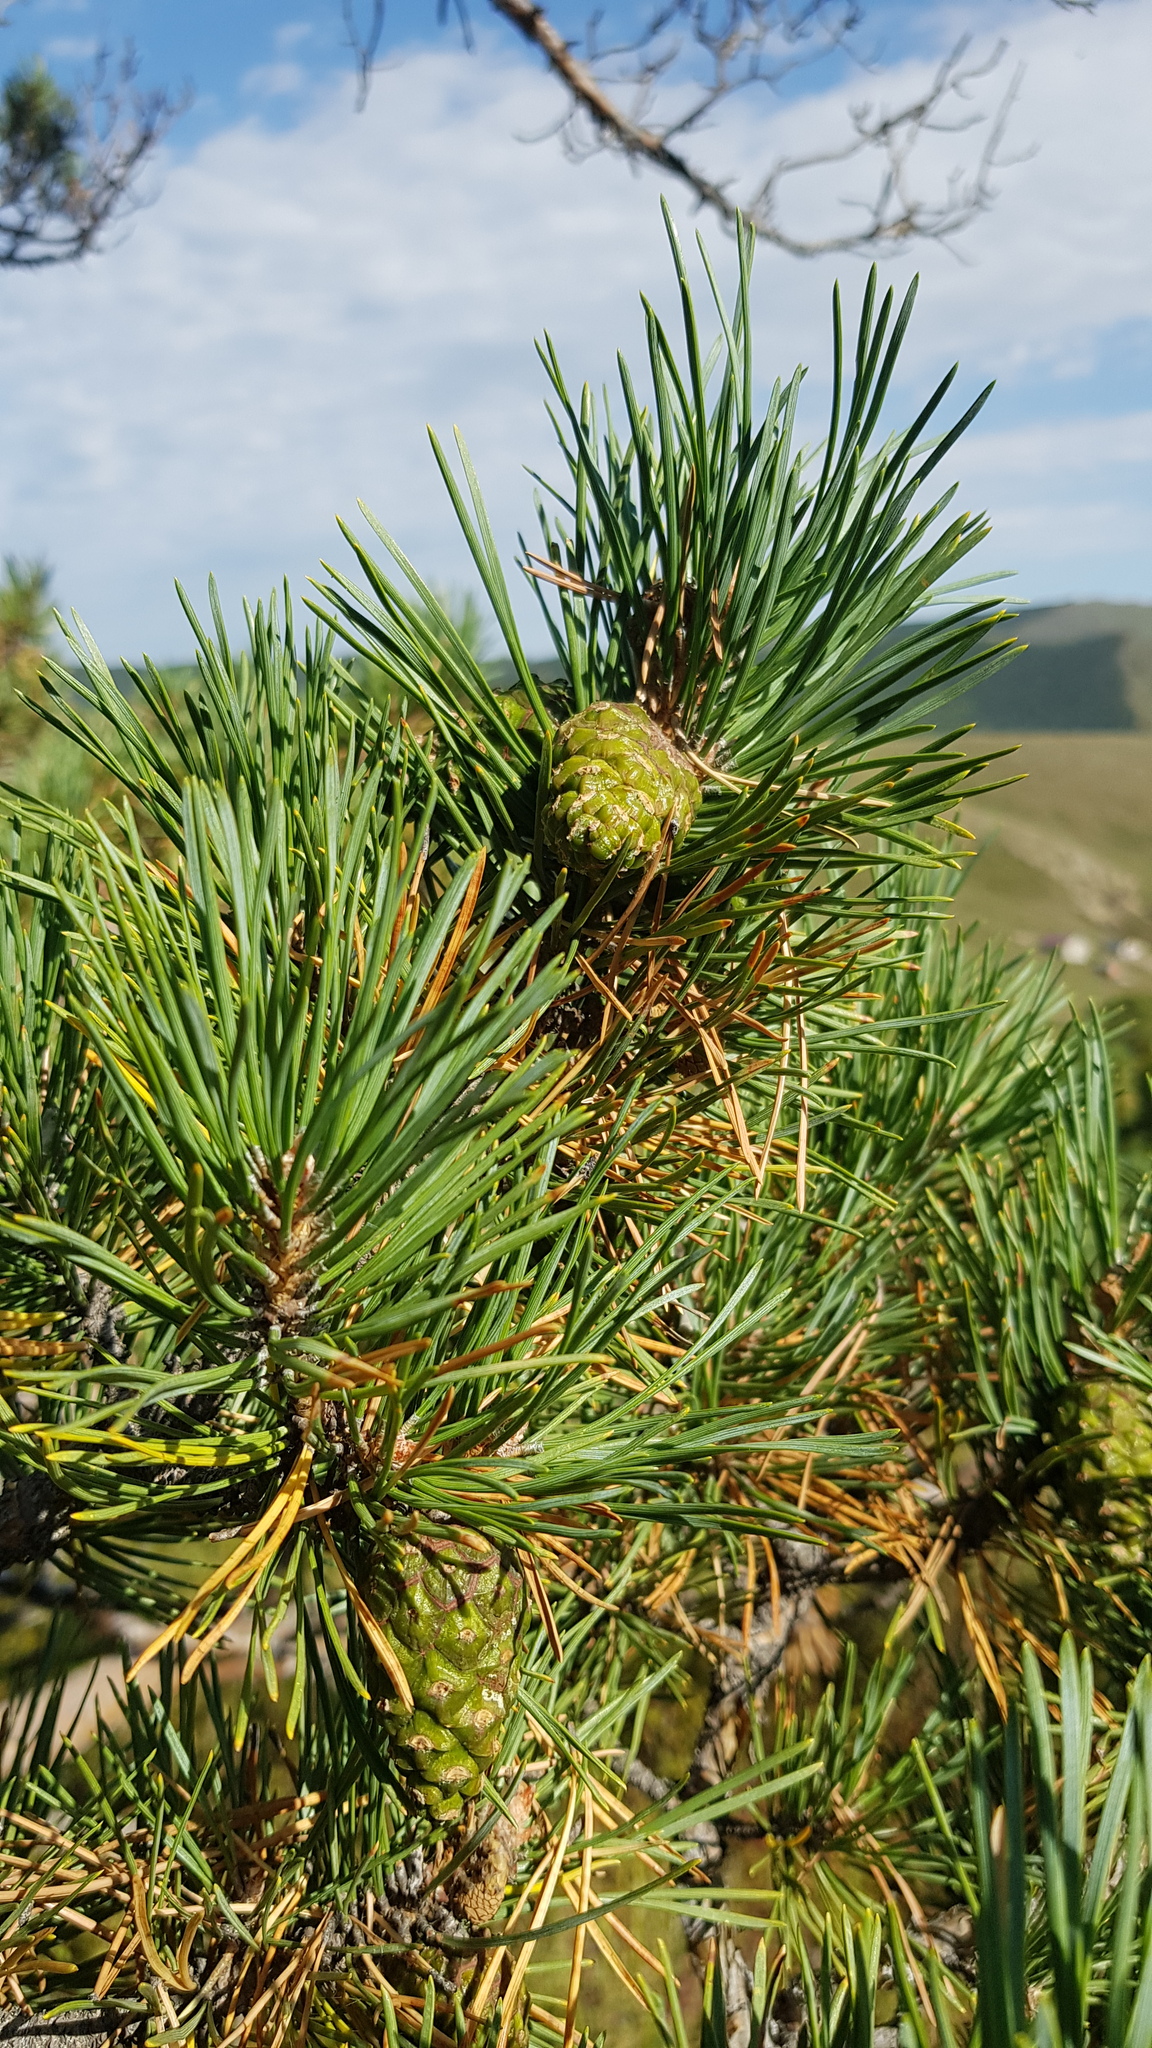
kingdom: Plantae
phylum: Tracheophyta
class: Pinopsida
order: Pinales
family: Pinaceae
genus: Pinus
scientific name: Pinus sylvestris
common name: Scots pine
